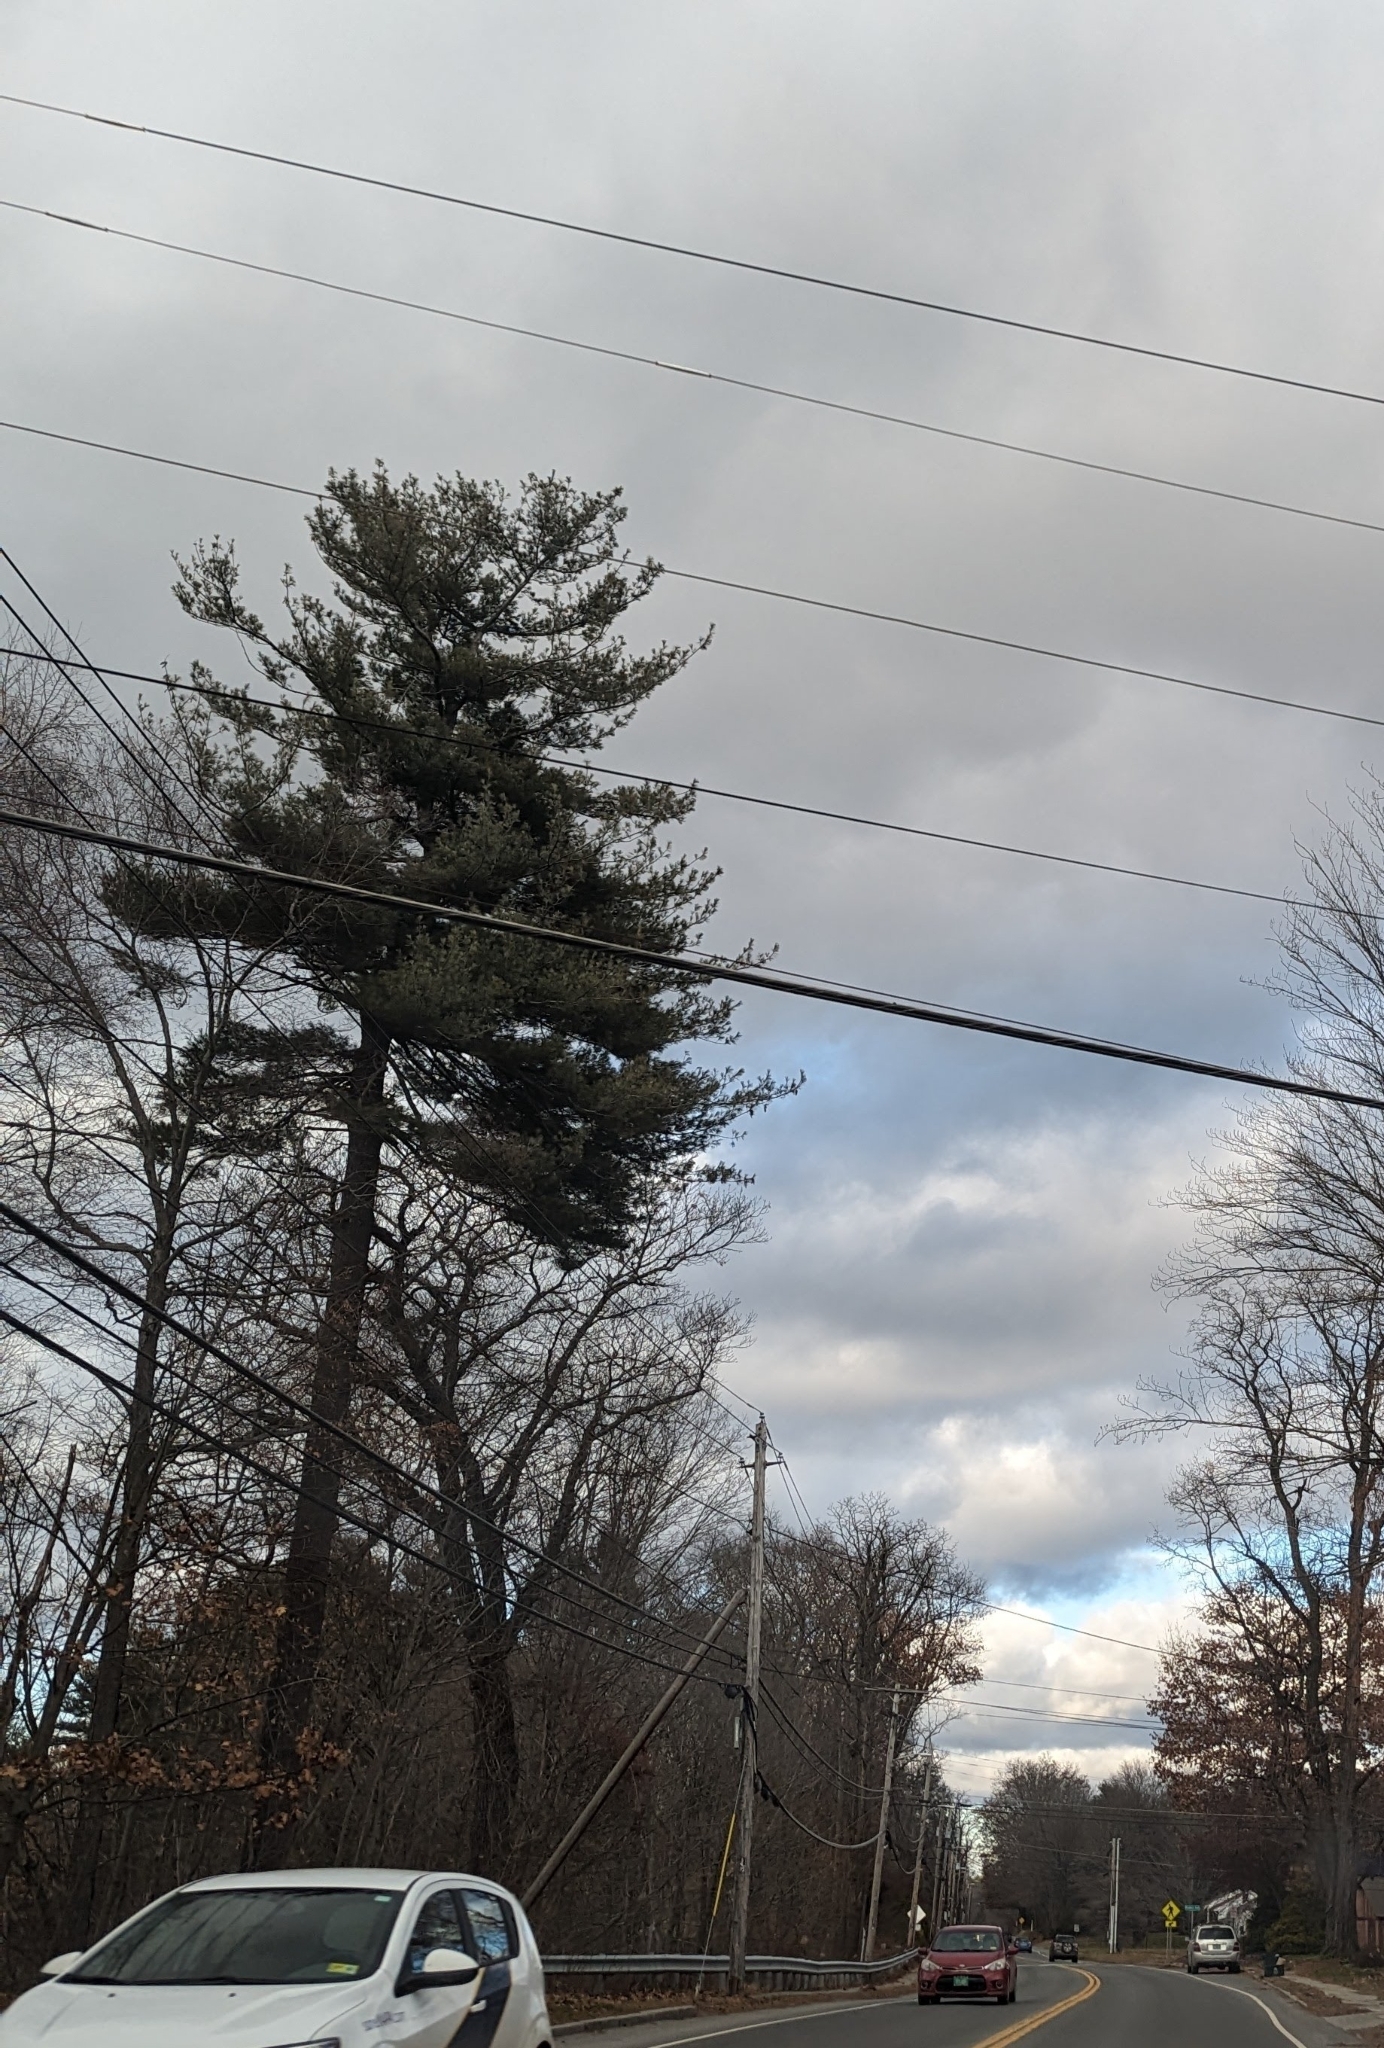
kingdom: Plantae
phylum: Tracheophyta
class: Pinopsida
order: Pinales
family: Pinaceae
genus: Pinus
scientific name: Pinus strobus
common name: Weymouth pine
